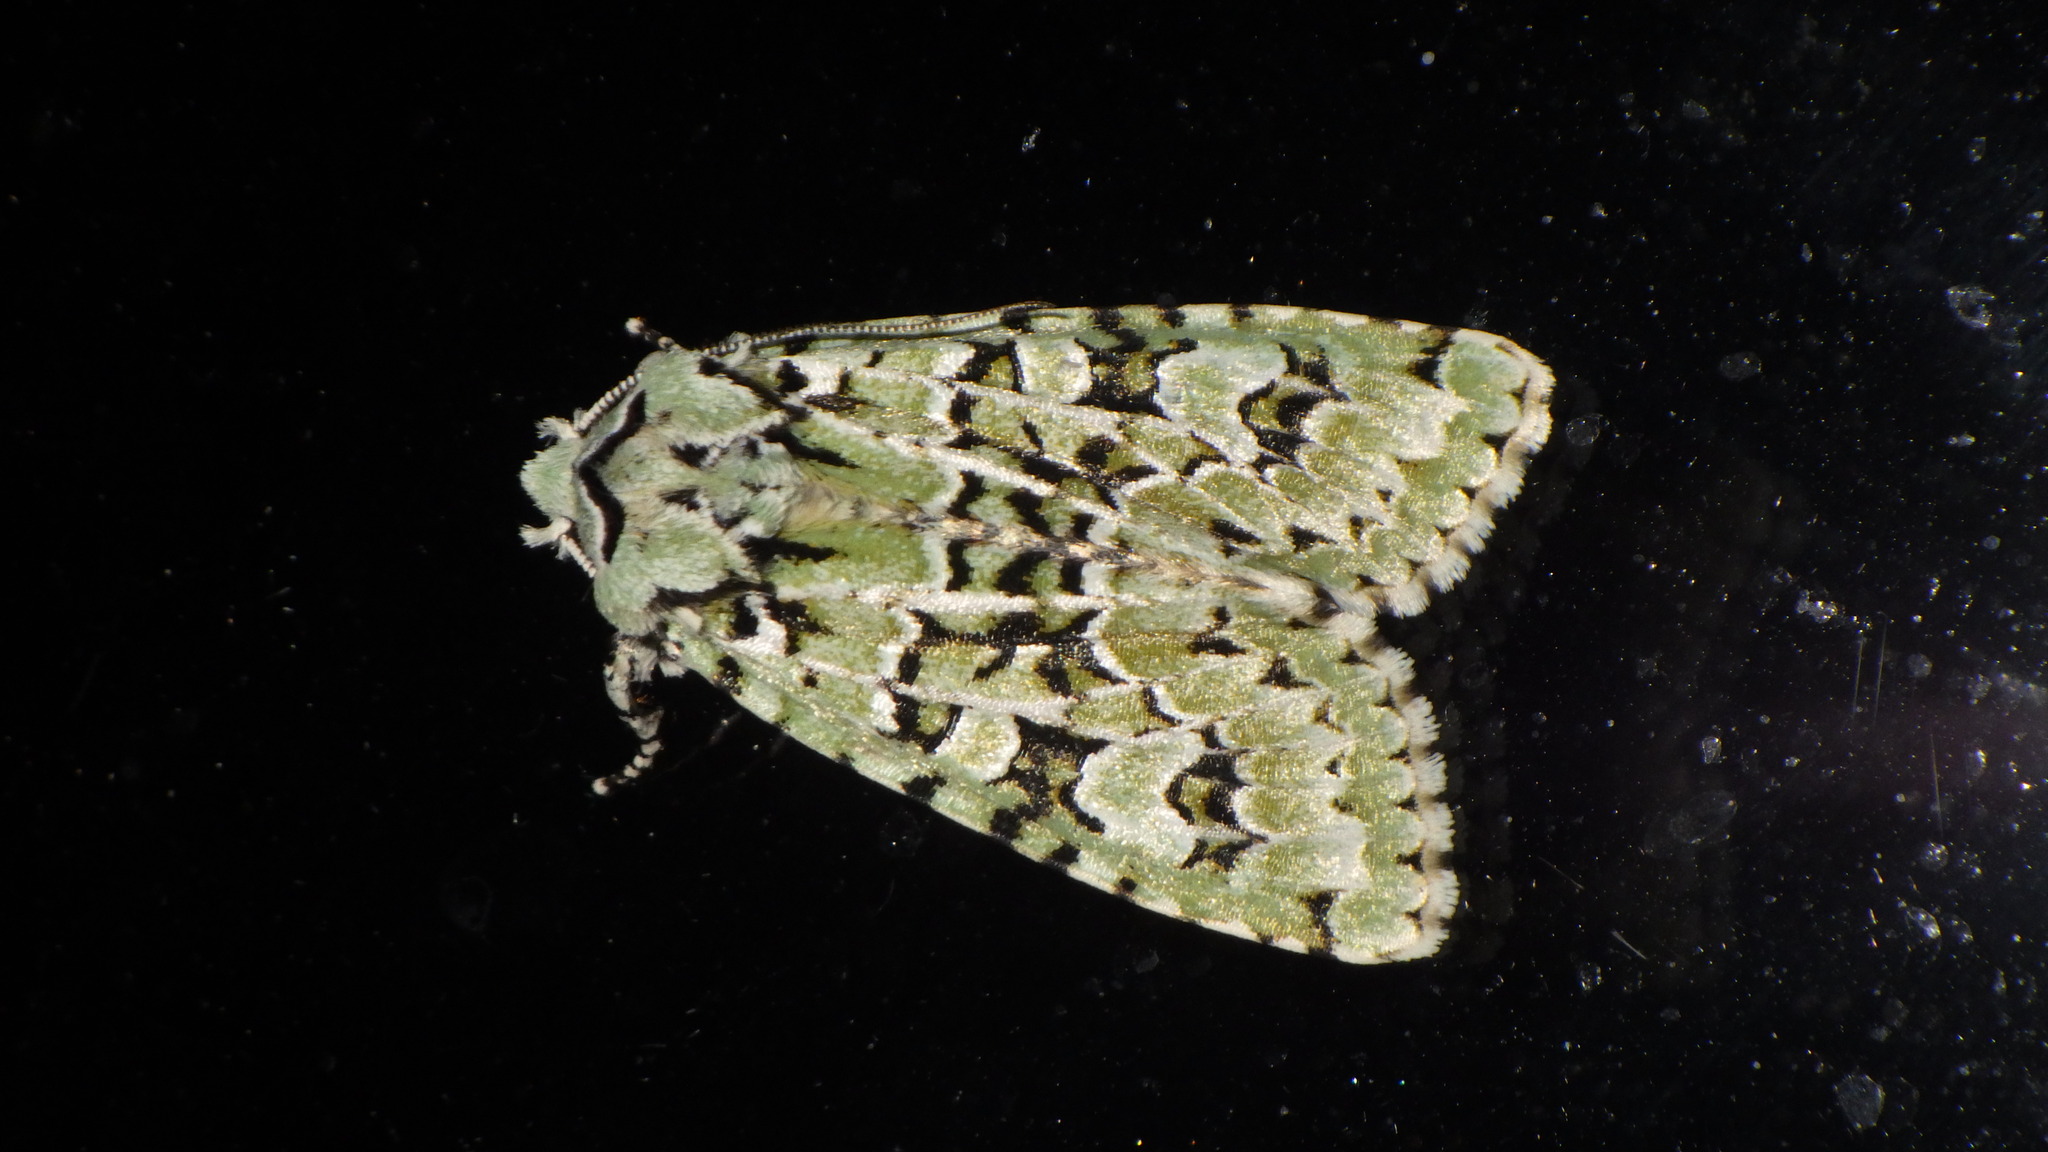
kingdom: Animalia
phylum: Arthropoda
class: Insecta
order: Lepidoptera
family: Noctuidae
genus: Griposia
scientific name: Griposia aprilina
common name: Merveille du jour
